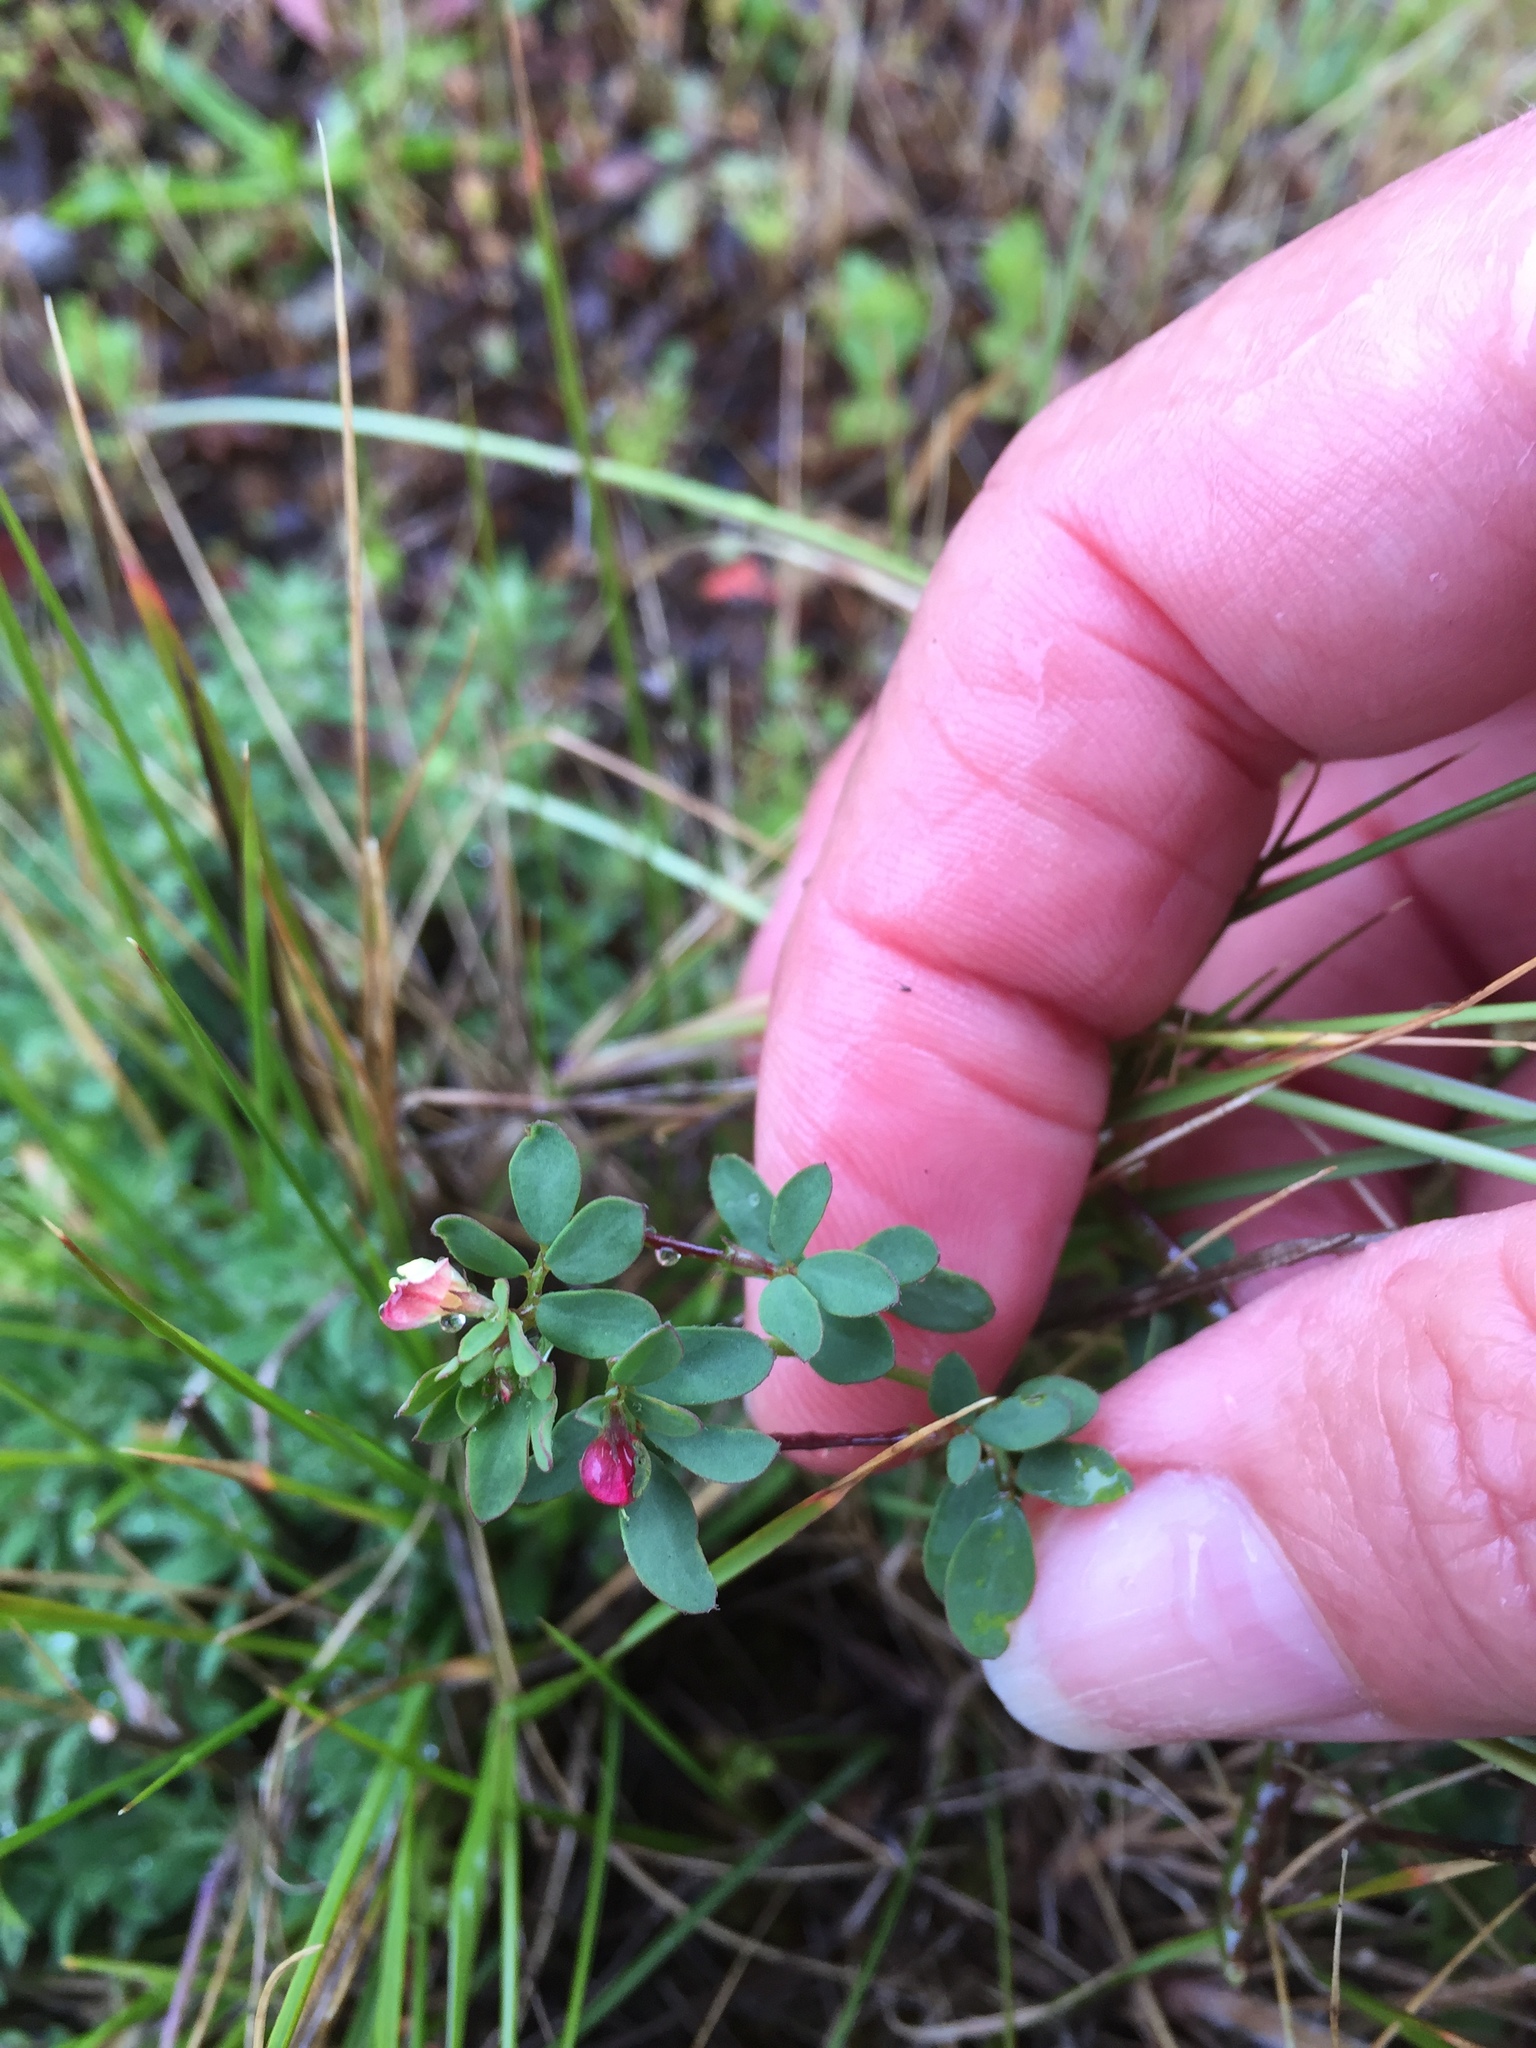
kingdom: Plantae
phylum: Tracheophyta
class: Magnoliopsida
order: Fabales
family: Fabaceae
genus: Acmispon
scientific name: Acmispon parviflorus
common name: Desert deer-vetch
